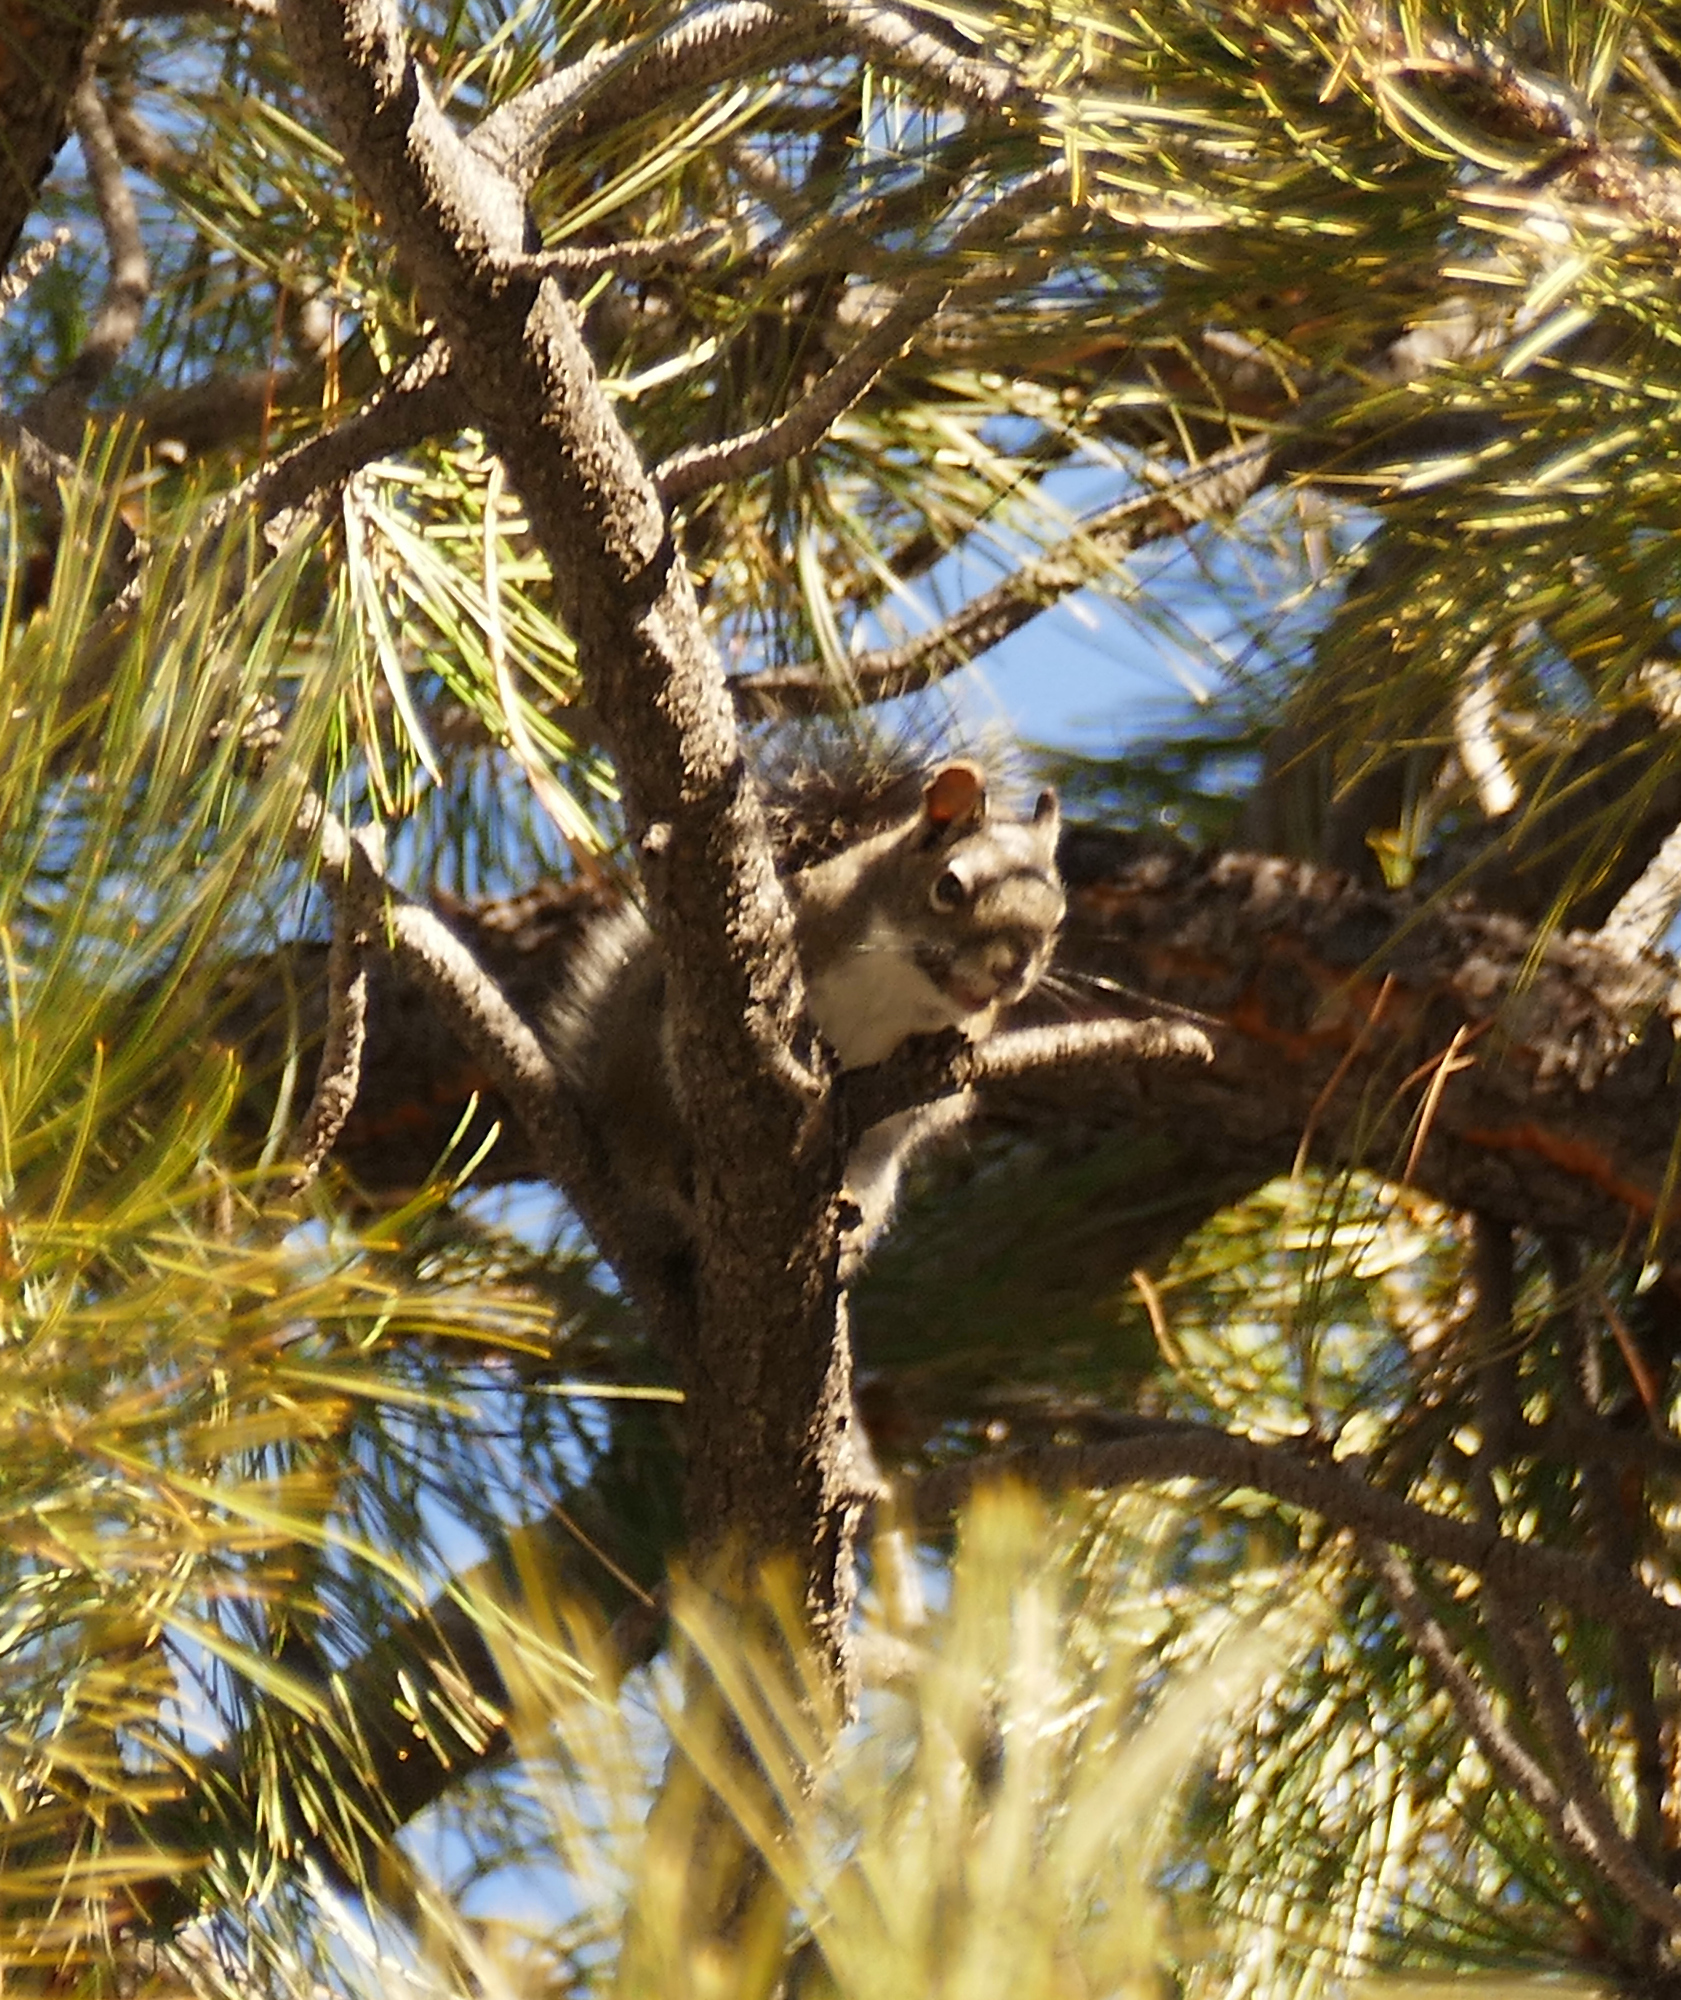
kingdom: Animalia
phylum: Chordata
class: Mammalia
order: Rodentia
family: Sciuridae
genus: Tamiasciurus
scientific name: Tamiasciurus hudsonicus
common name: Red squirrel
